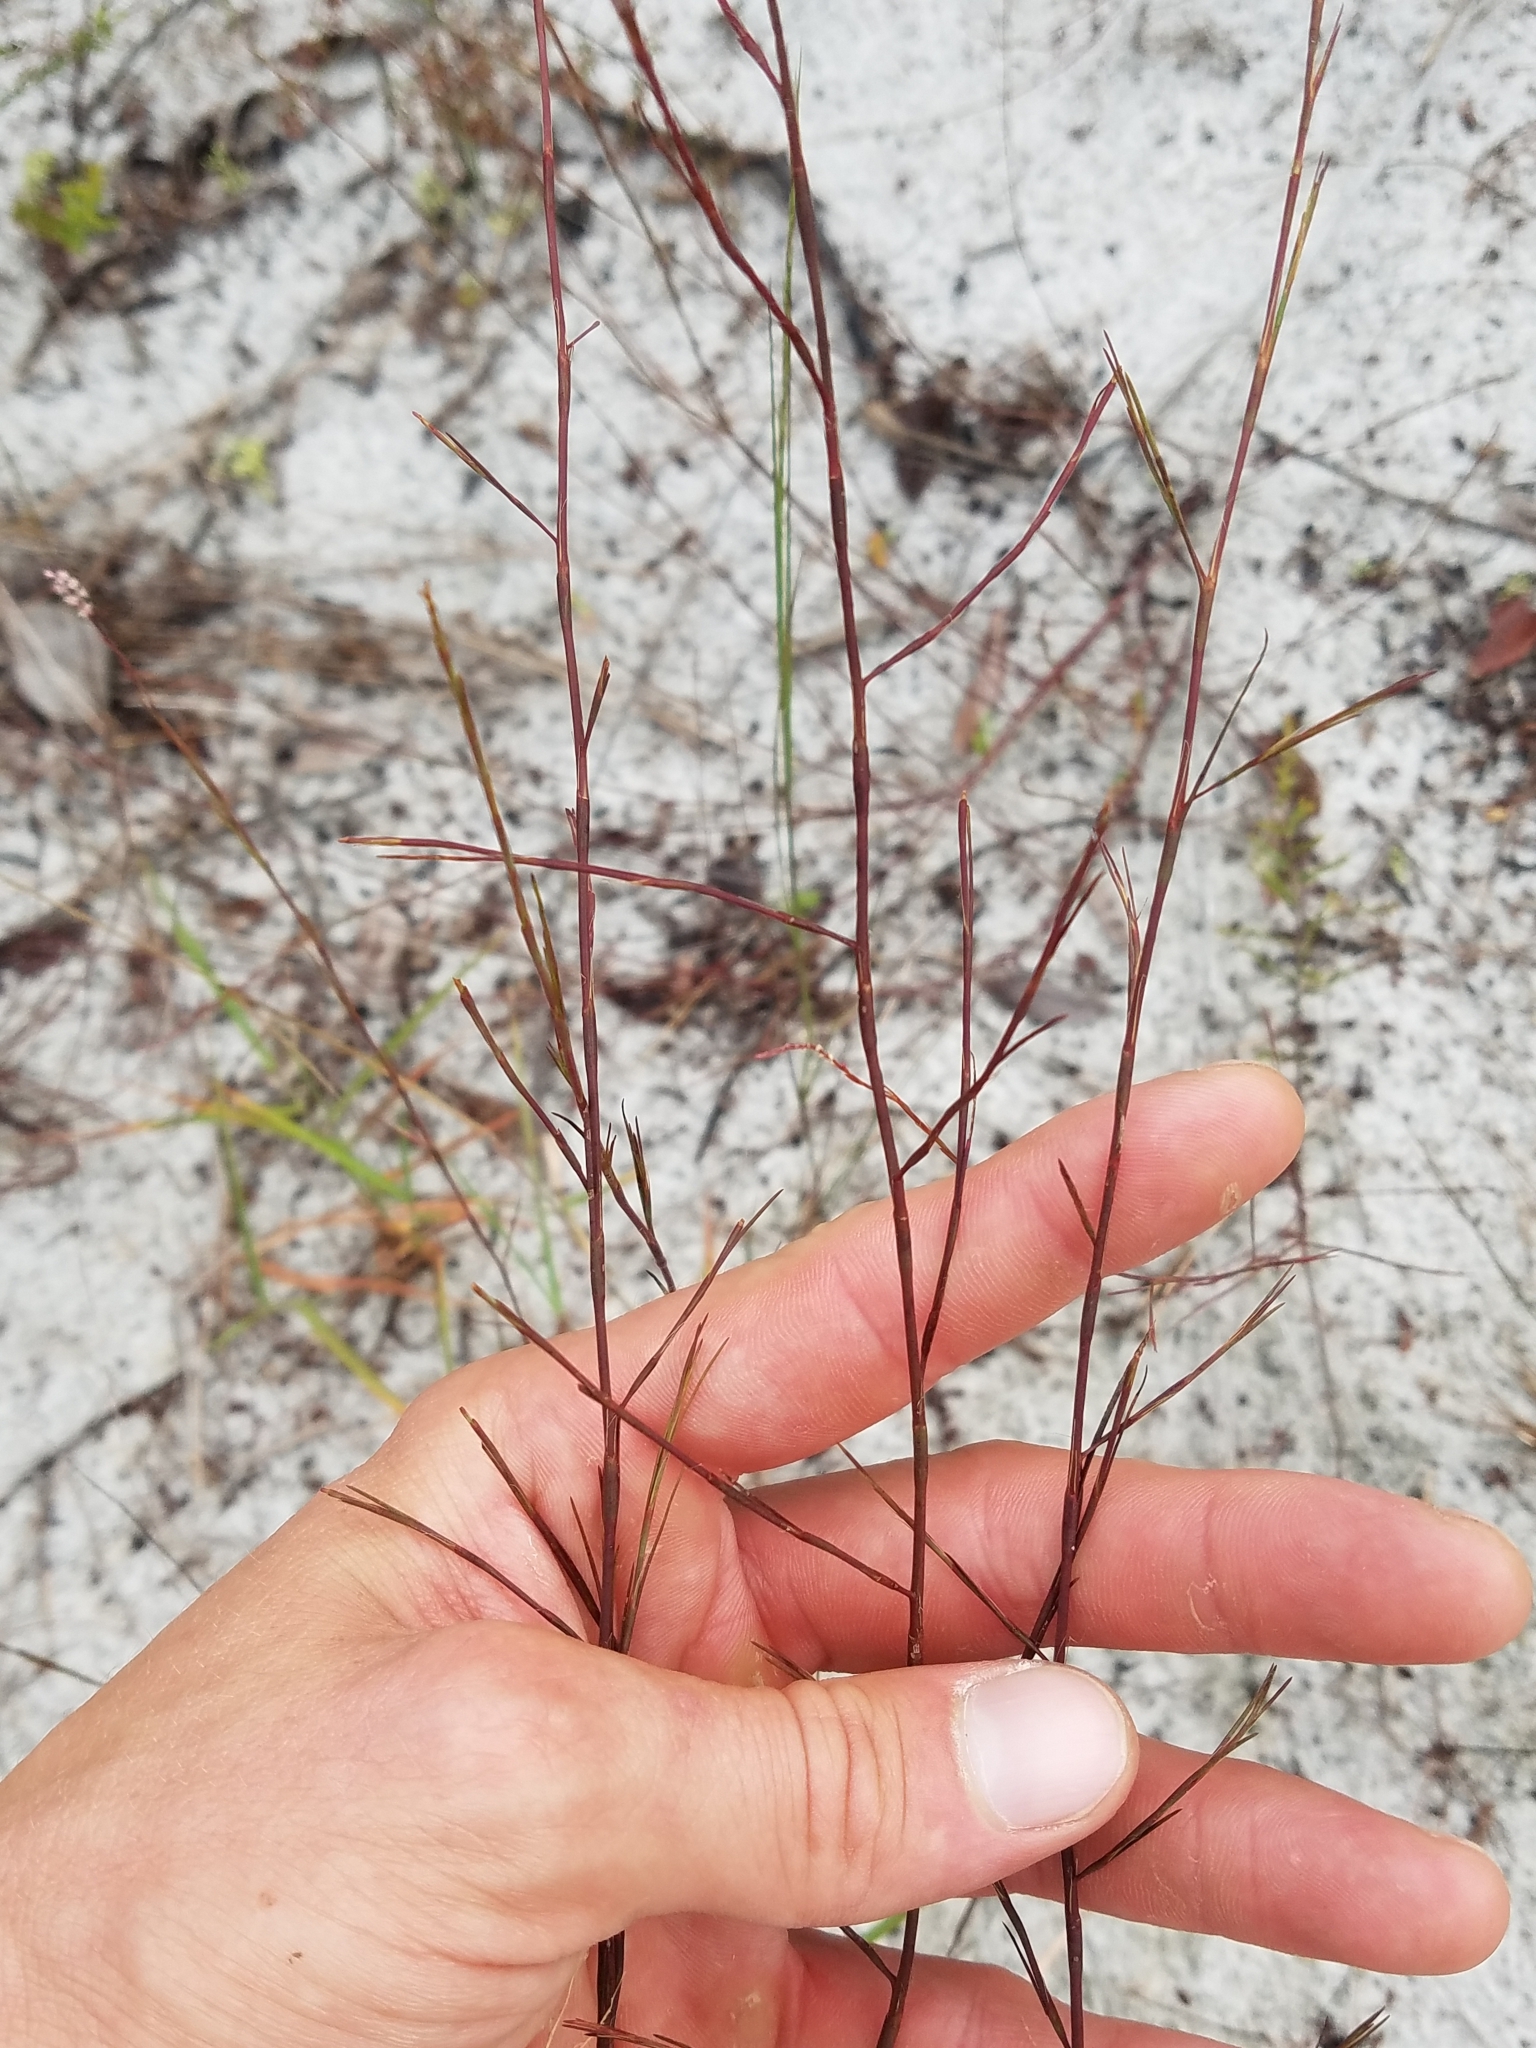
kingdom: Plantae
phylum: Tracheophyta
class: Magnoliopsida
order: Caryophyllales
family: Polygonaceae
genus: Polygonella
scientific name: Polygonella basiramia
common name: Hairy wireweed
